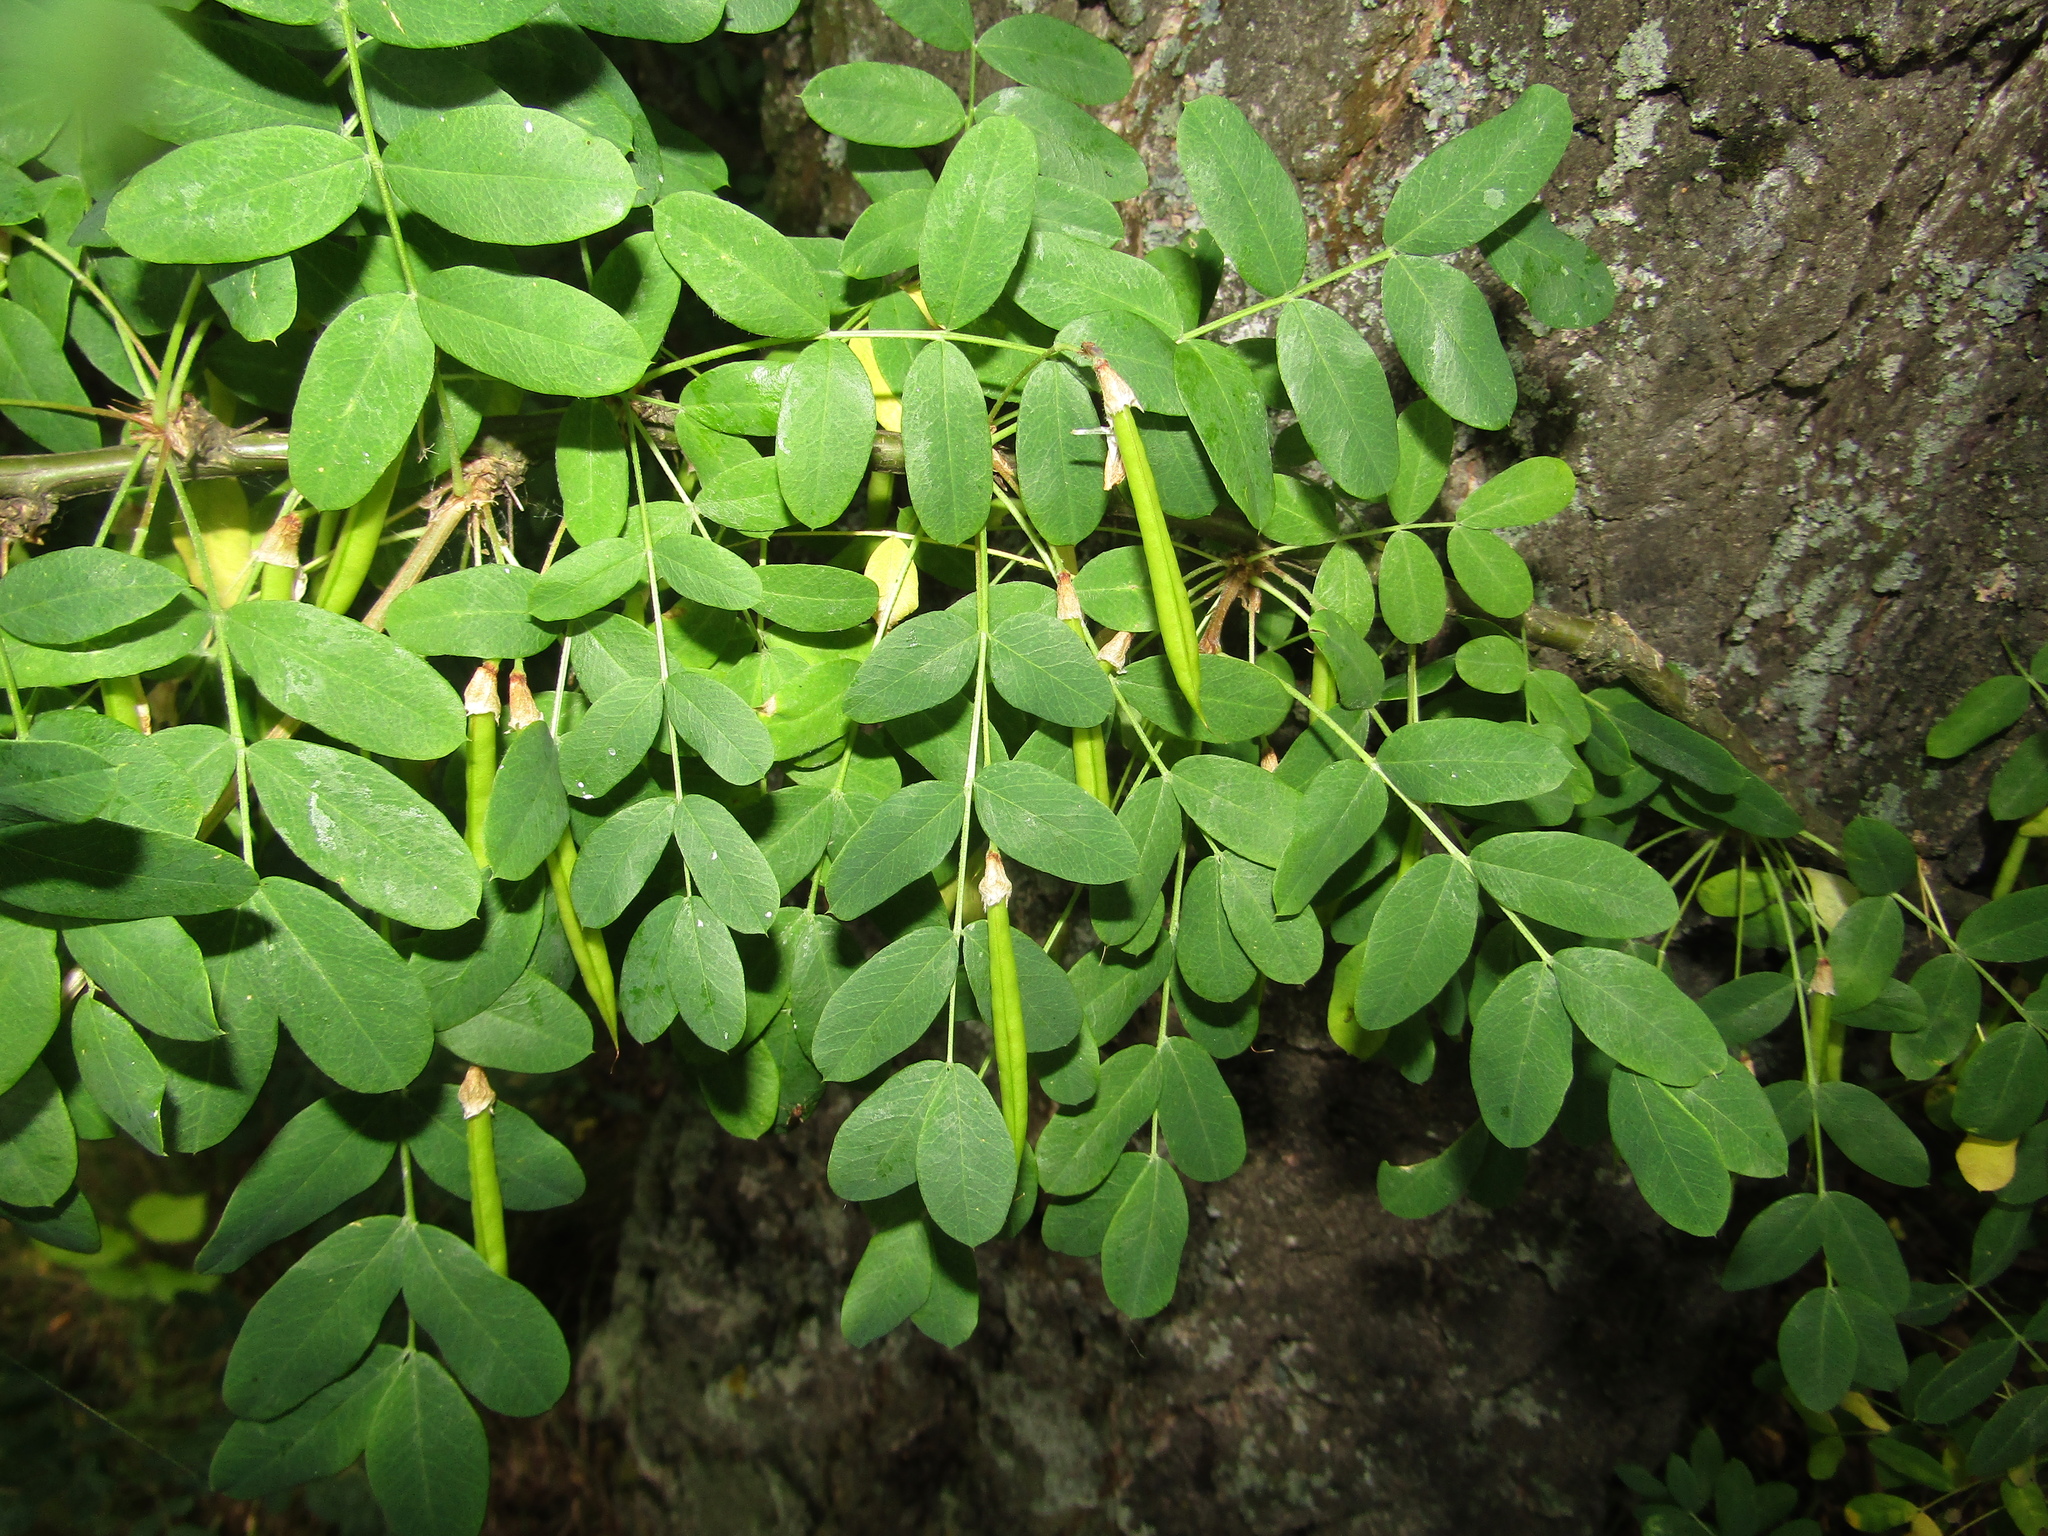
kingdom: Plantae
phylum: Tracheophyta
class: Magnoliopsida
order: Fabales
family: Fabaceae
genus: Caragana
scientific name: Caragana arborescens
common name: Siberian peashrub
